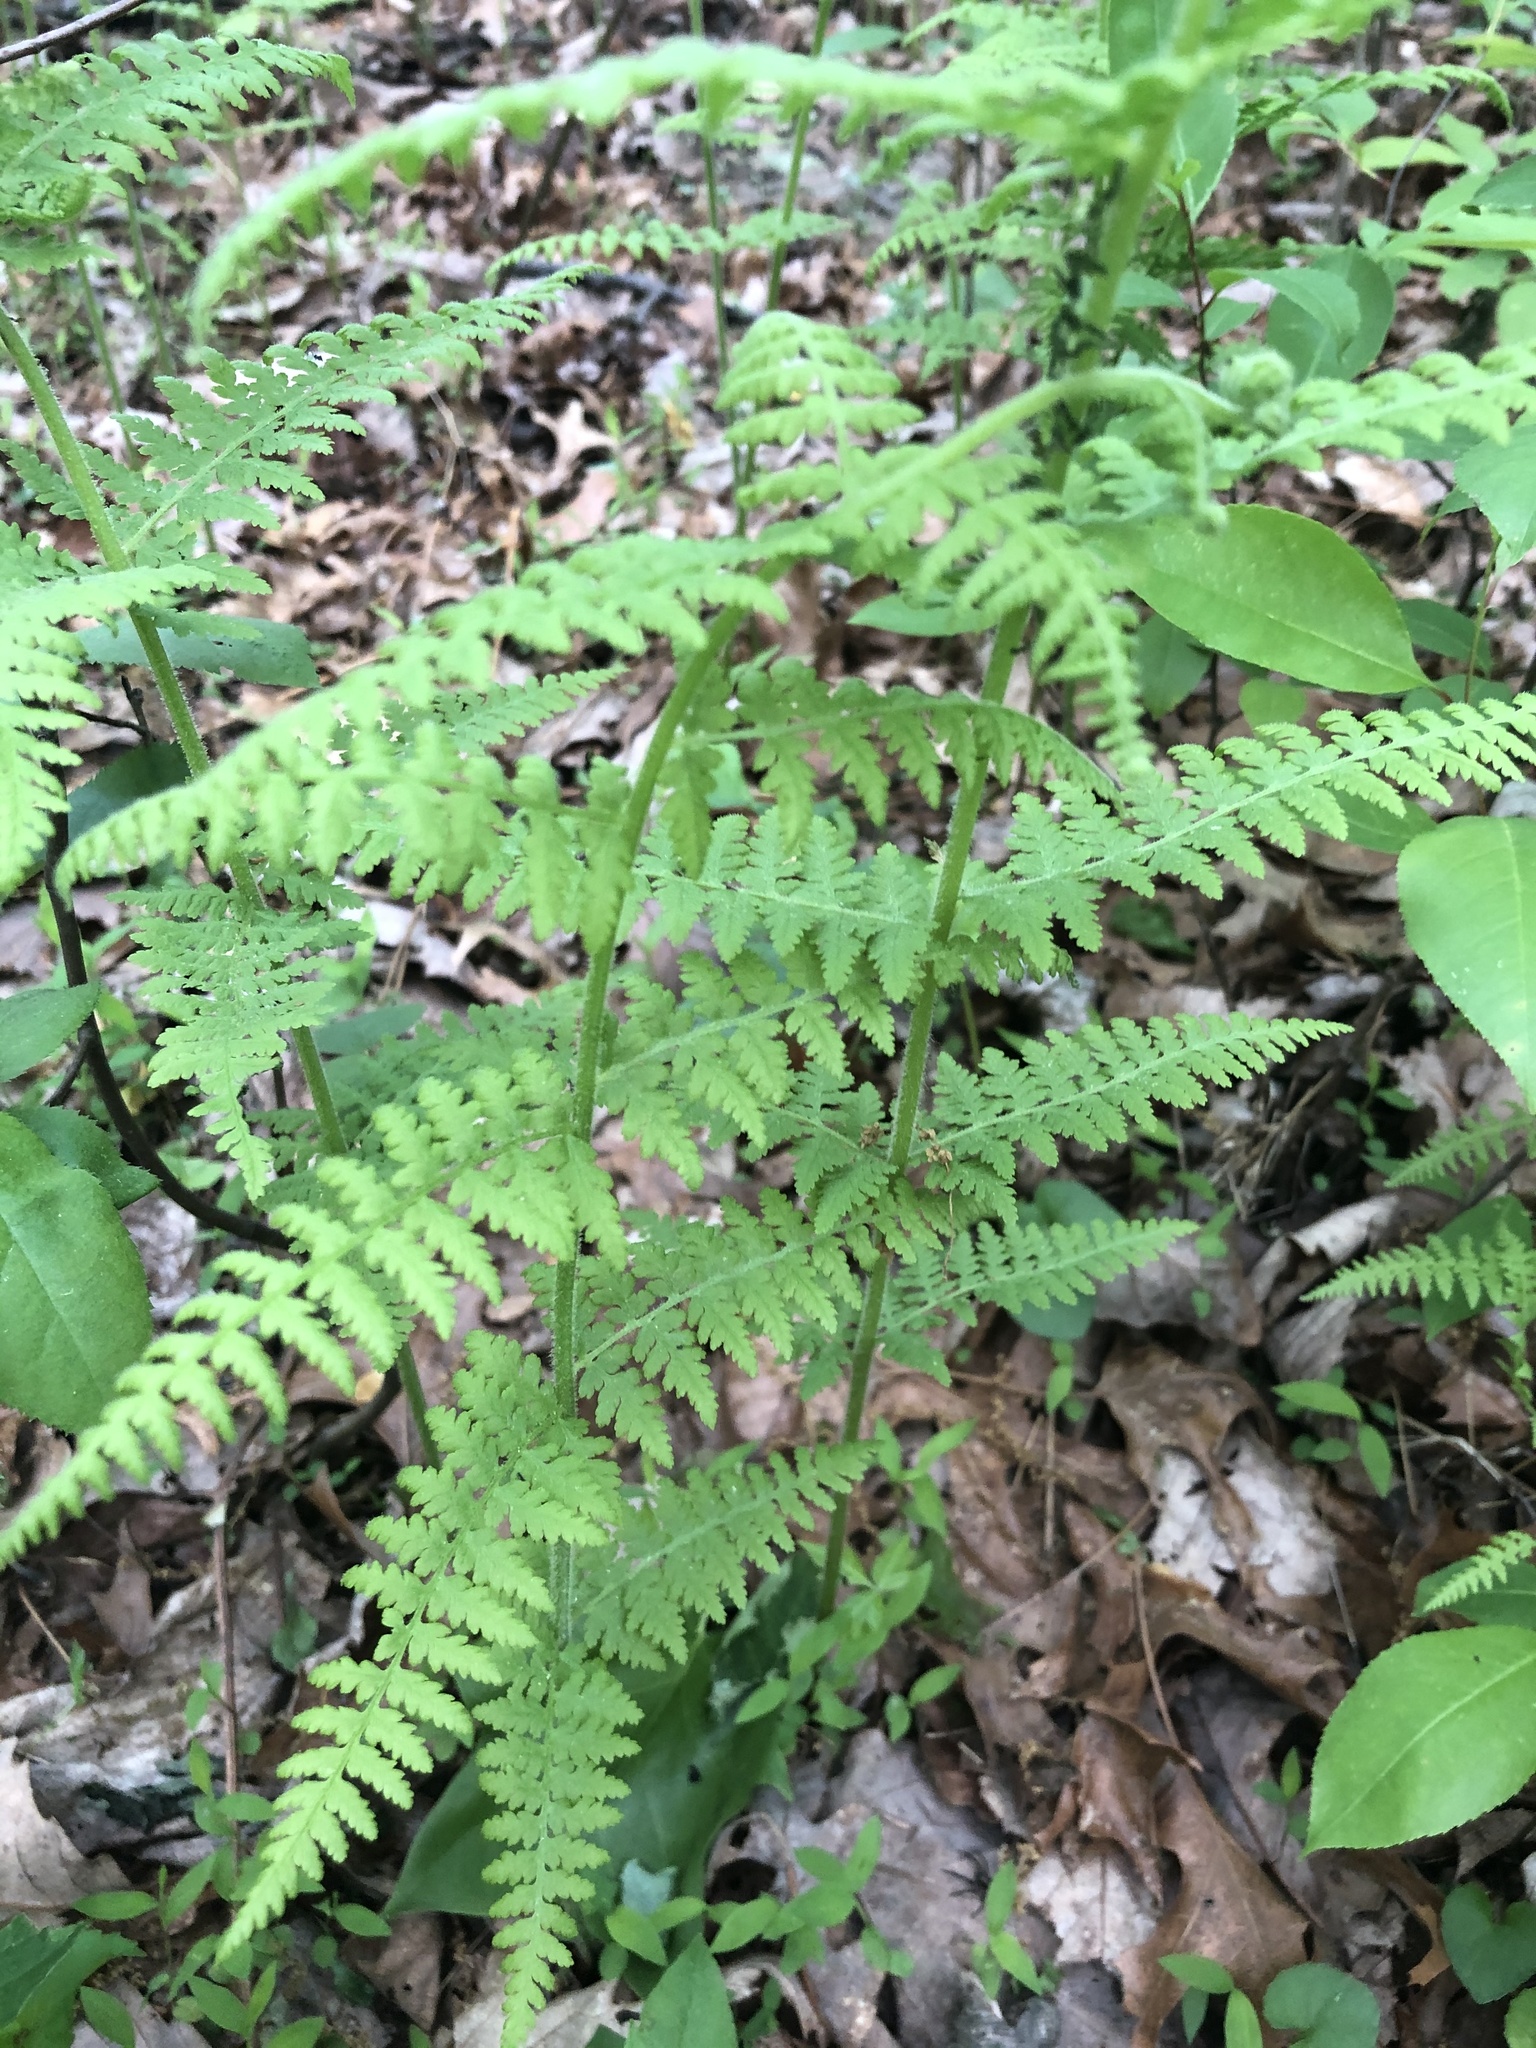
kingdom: Plantae
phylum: Tracheophyta
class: Polypodiopsida
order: Polypodiales
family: Dennstaedtiaceae
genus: Sitobolium
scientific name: Sitobolium punctilobum
